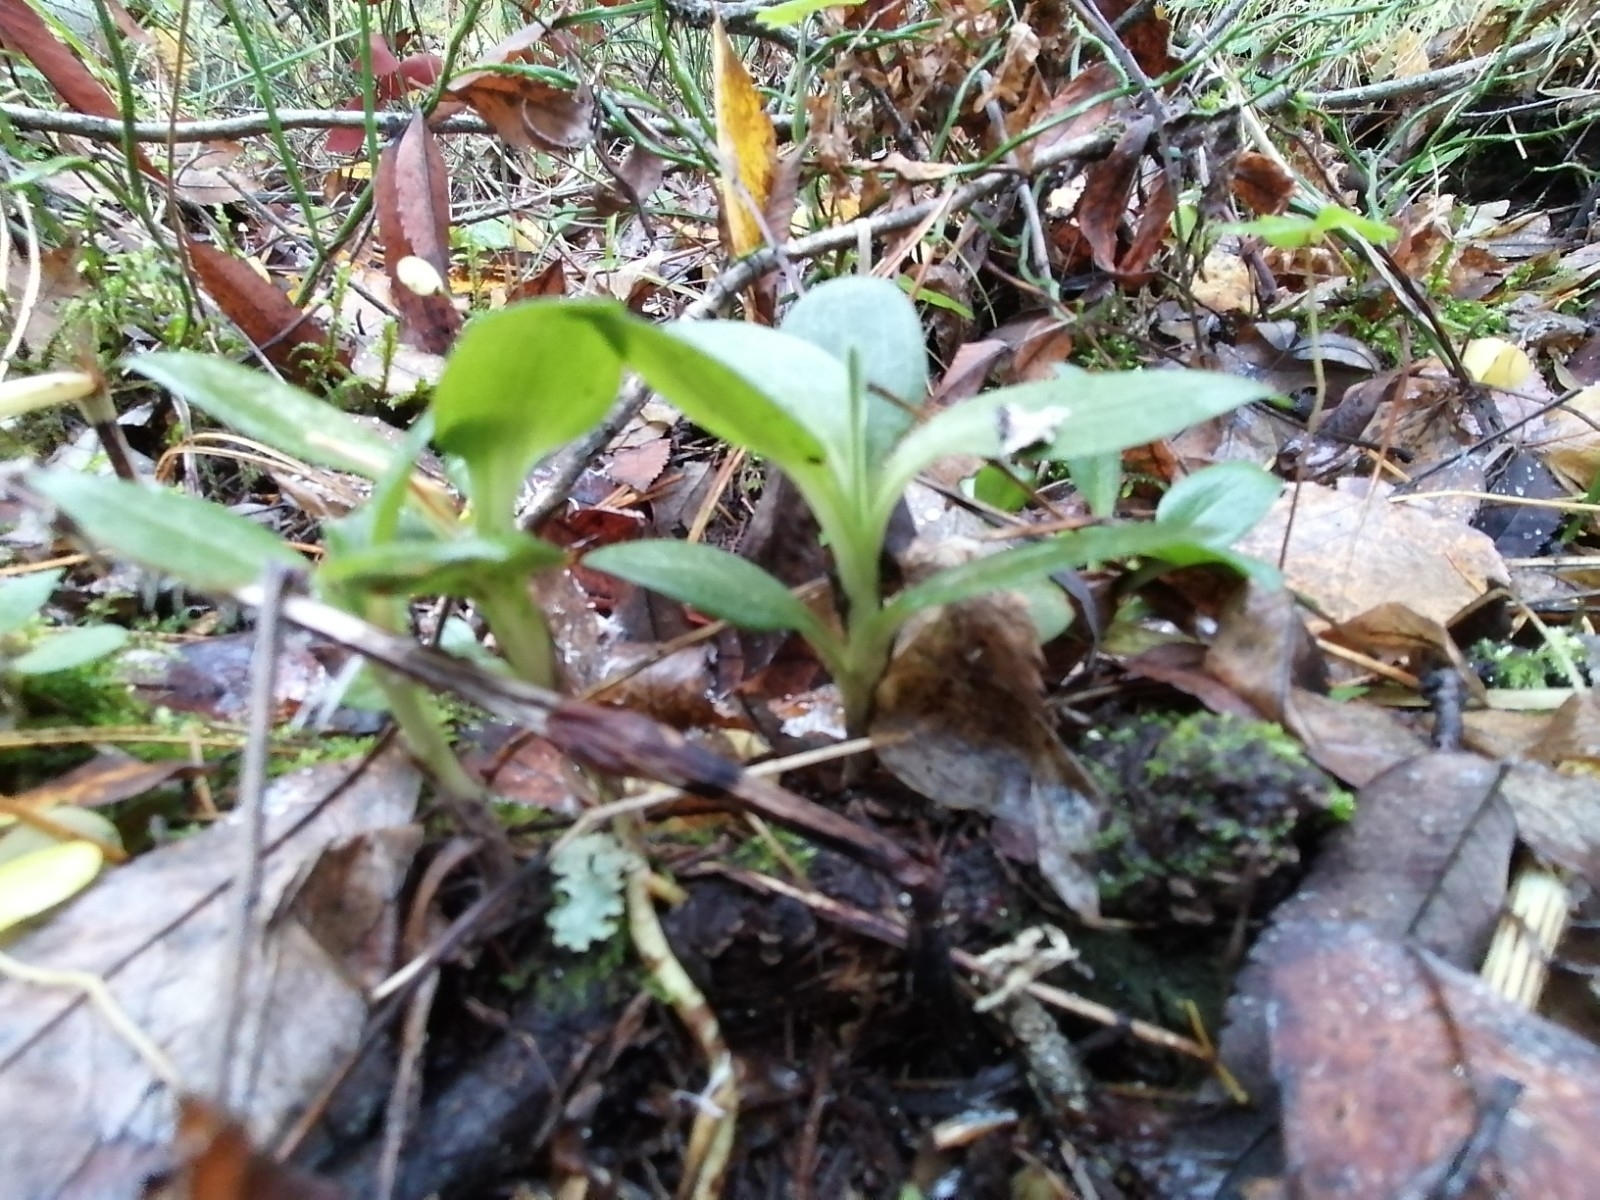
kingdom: Plantae
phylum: Tracheophyta
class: Liliopsida
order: Asparagales
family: Orchidaceae
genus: Goodyera
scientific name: Goodyera repens
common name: Creeping lady's-tresses
